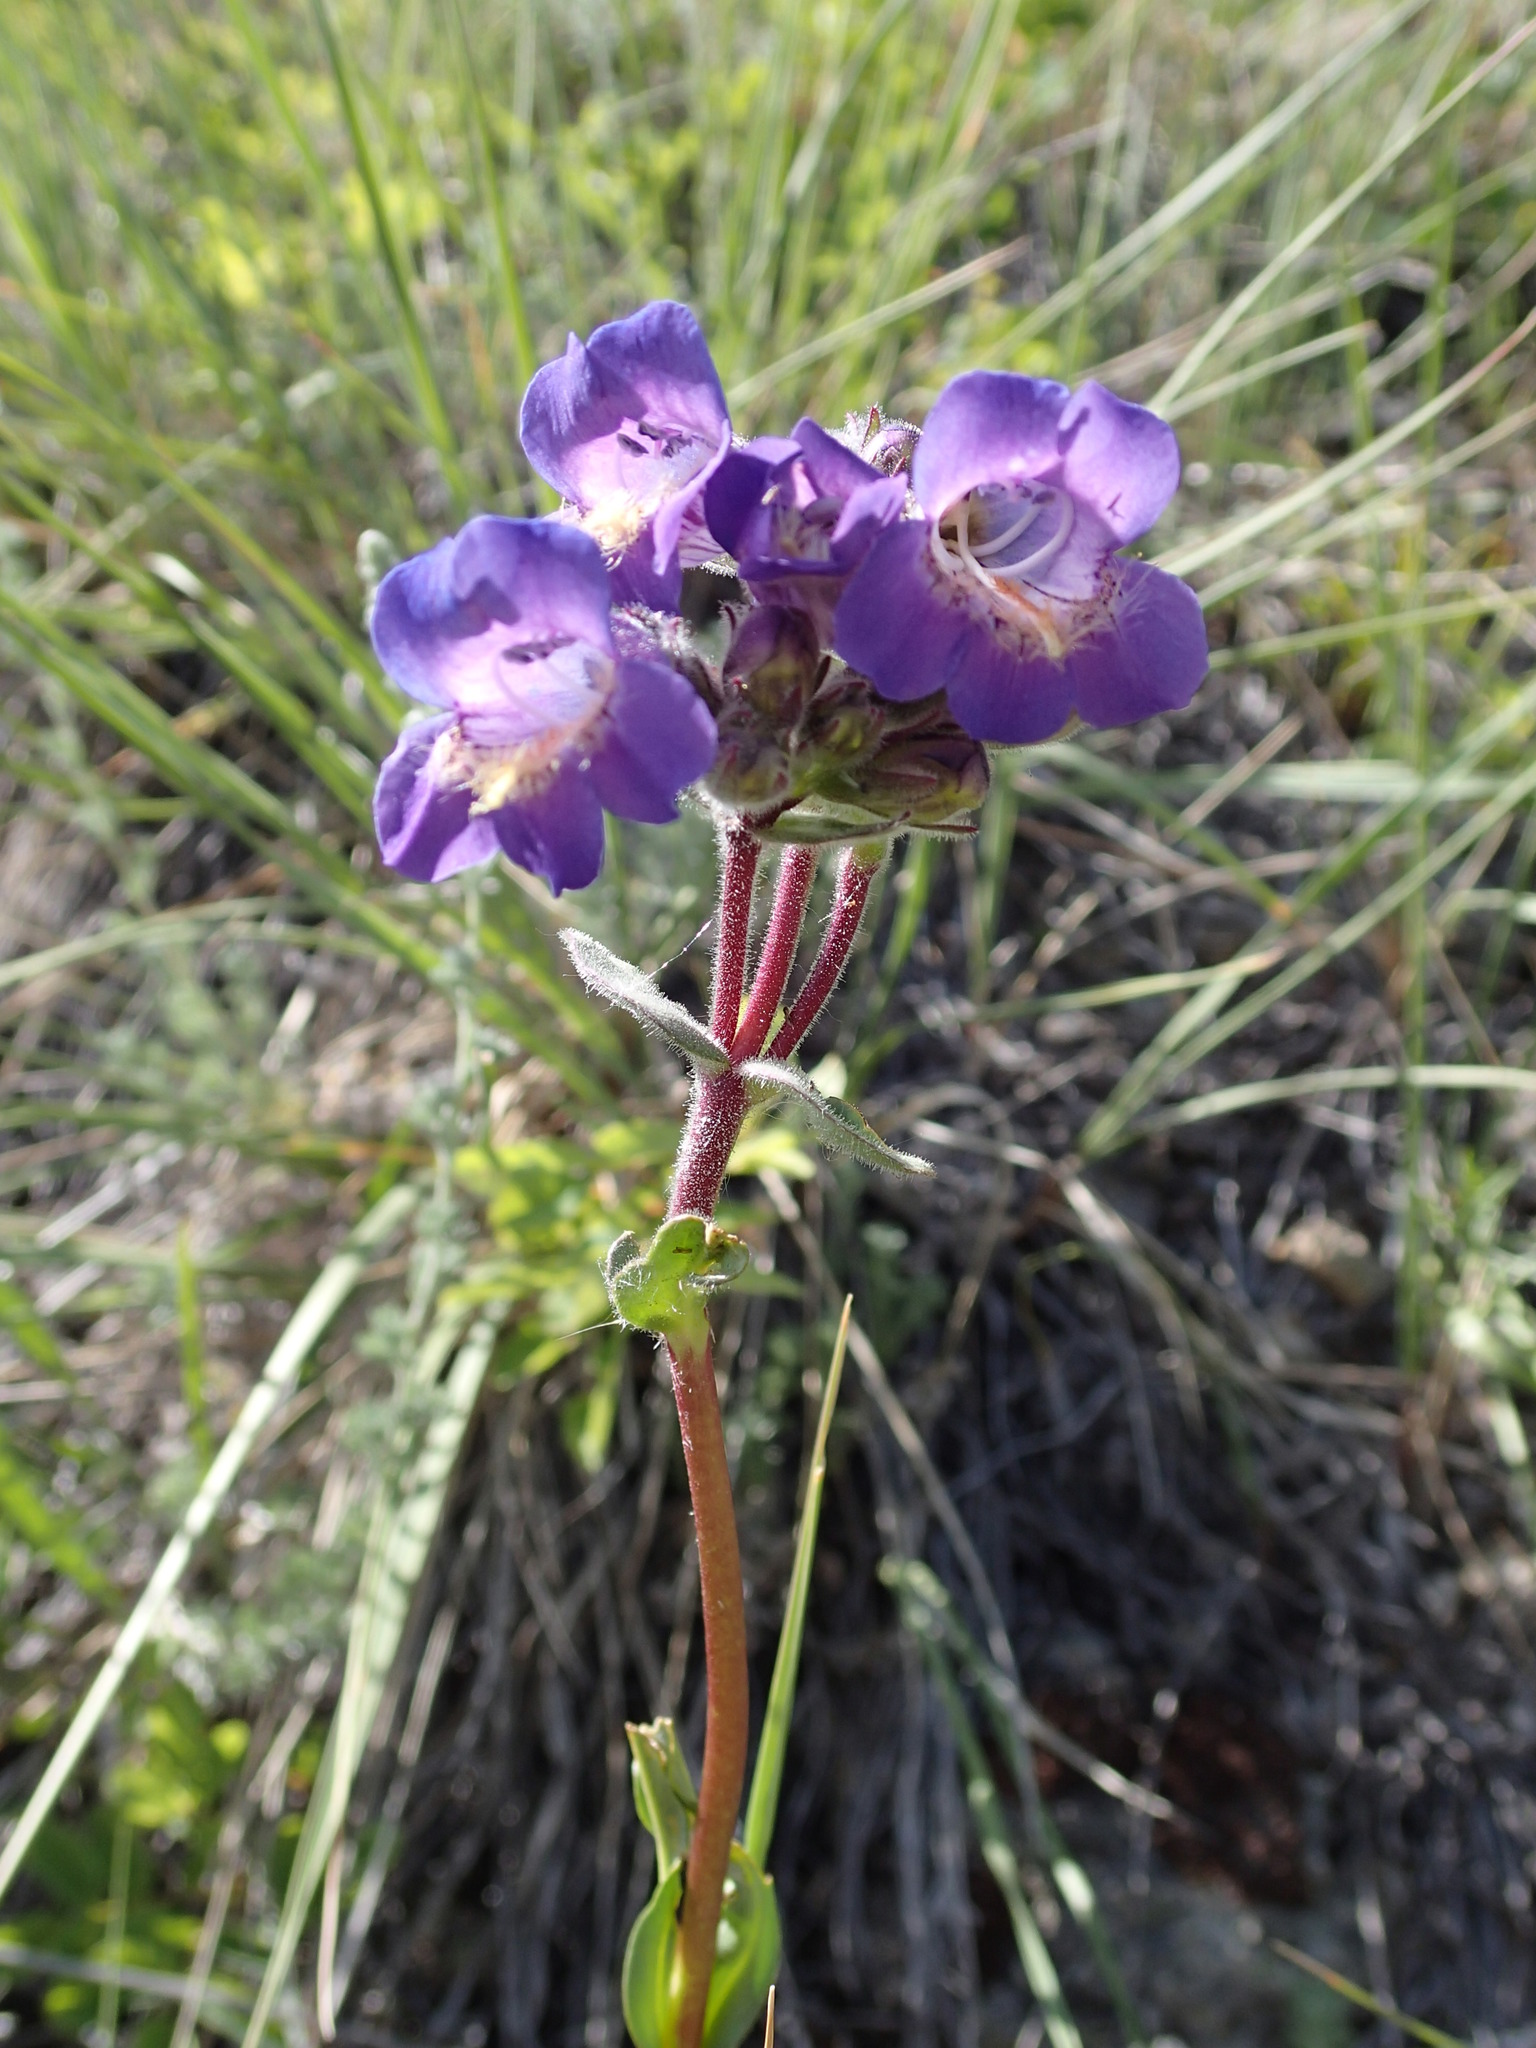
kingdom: Plantae
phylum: Tracheophyta
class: Magnoliopsida
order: Lamiales
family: Plantaginaceae
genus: Penstemon
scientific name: Penstemon gormanii
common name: Gorman's beardtongue
